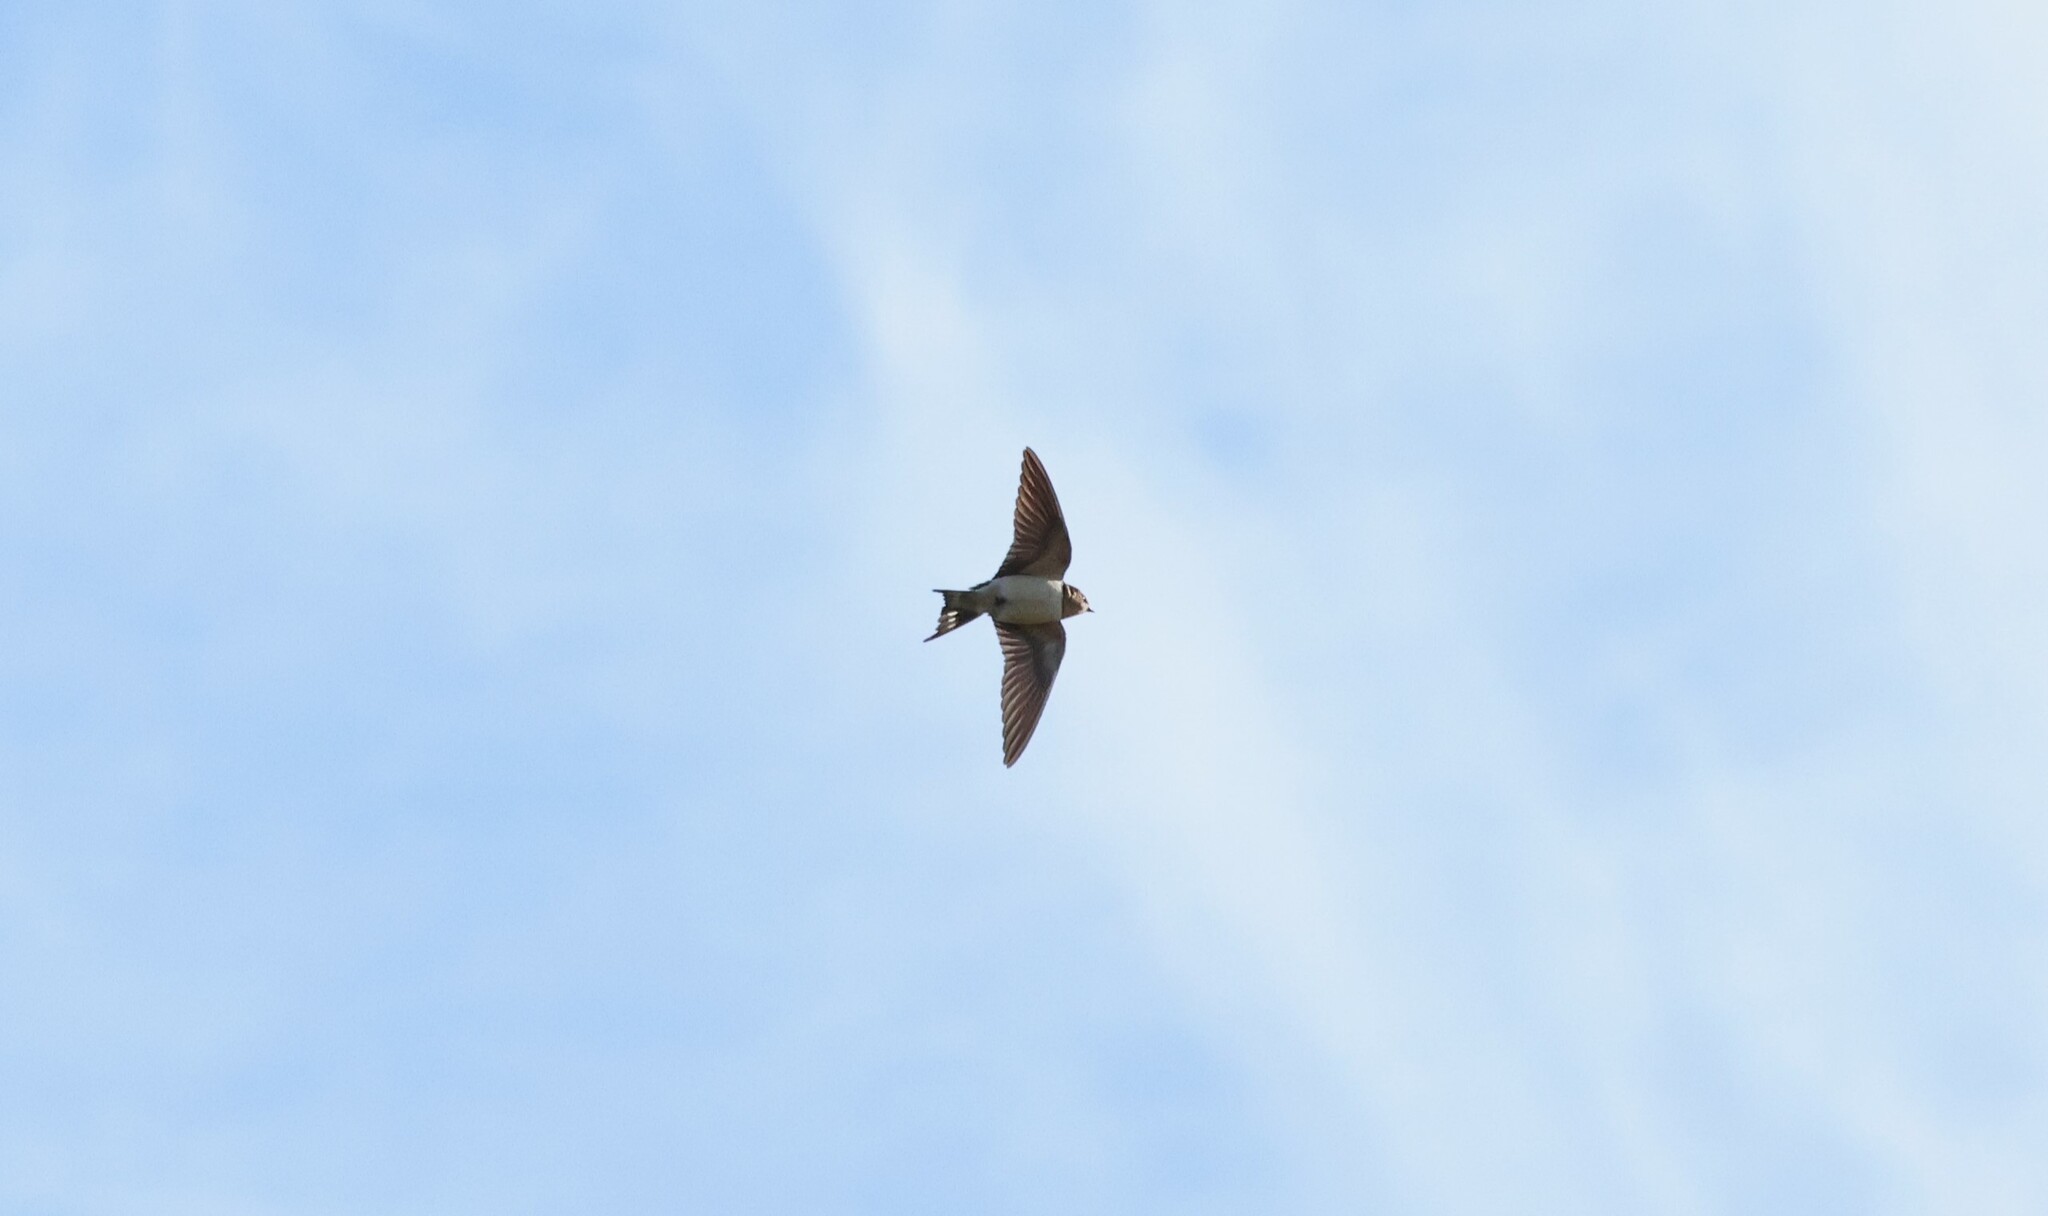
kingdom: Animalia
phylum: Chordata
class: Aves
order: Passeriformes
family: Hirundinidae
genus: Hirundo
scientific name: Hirundo rustica
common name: Barn swallow
